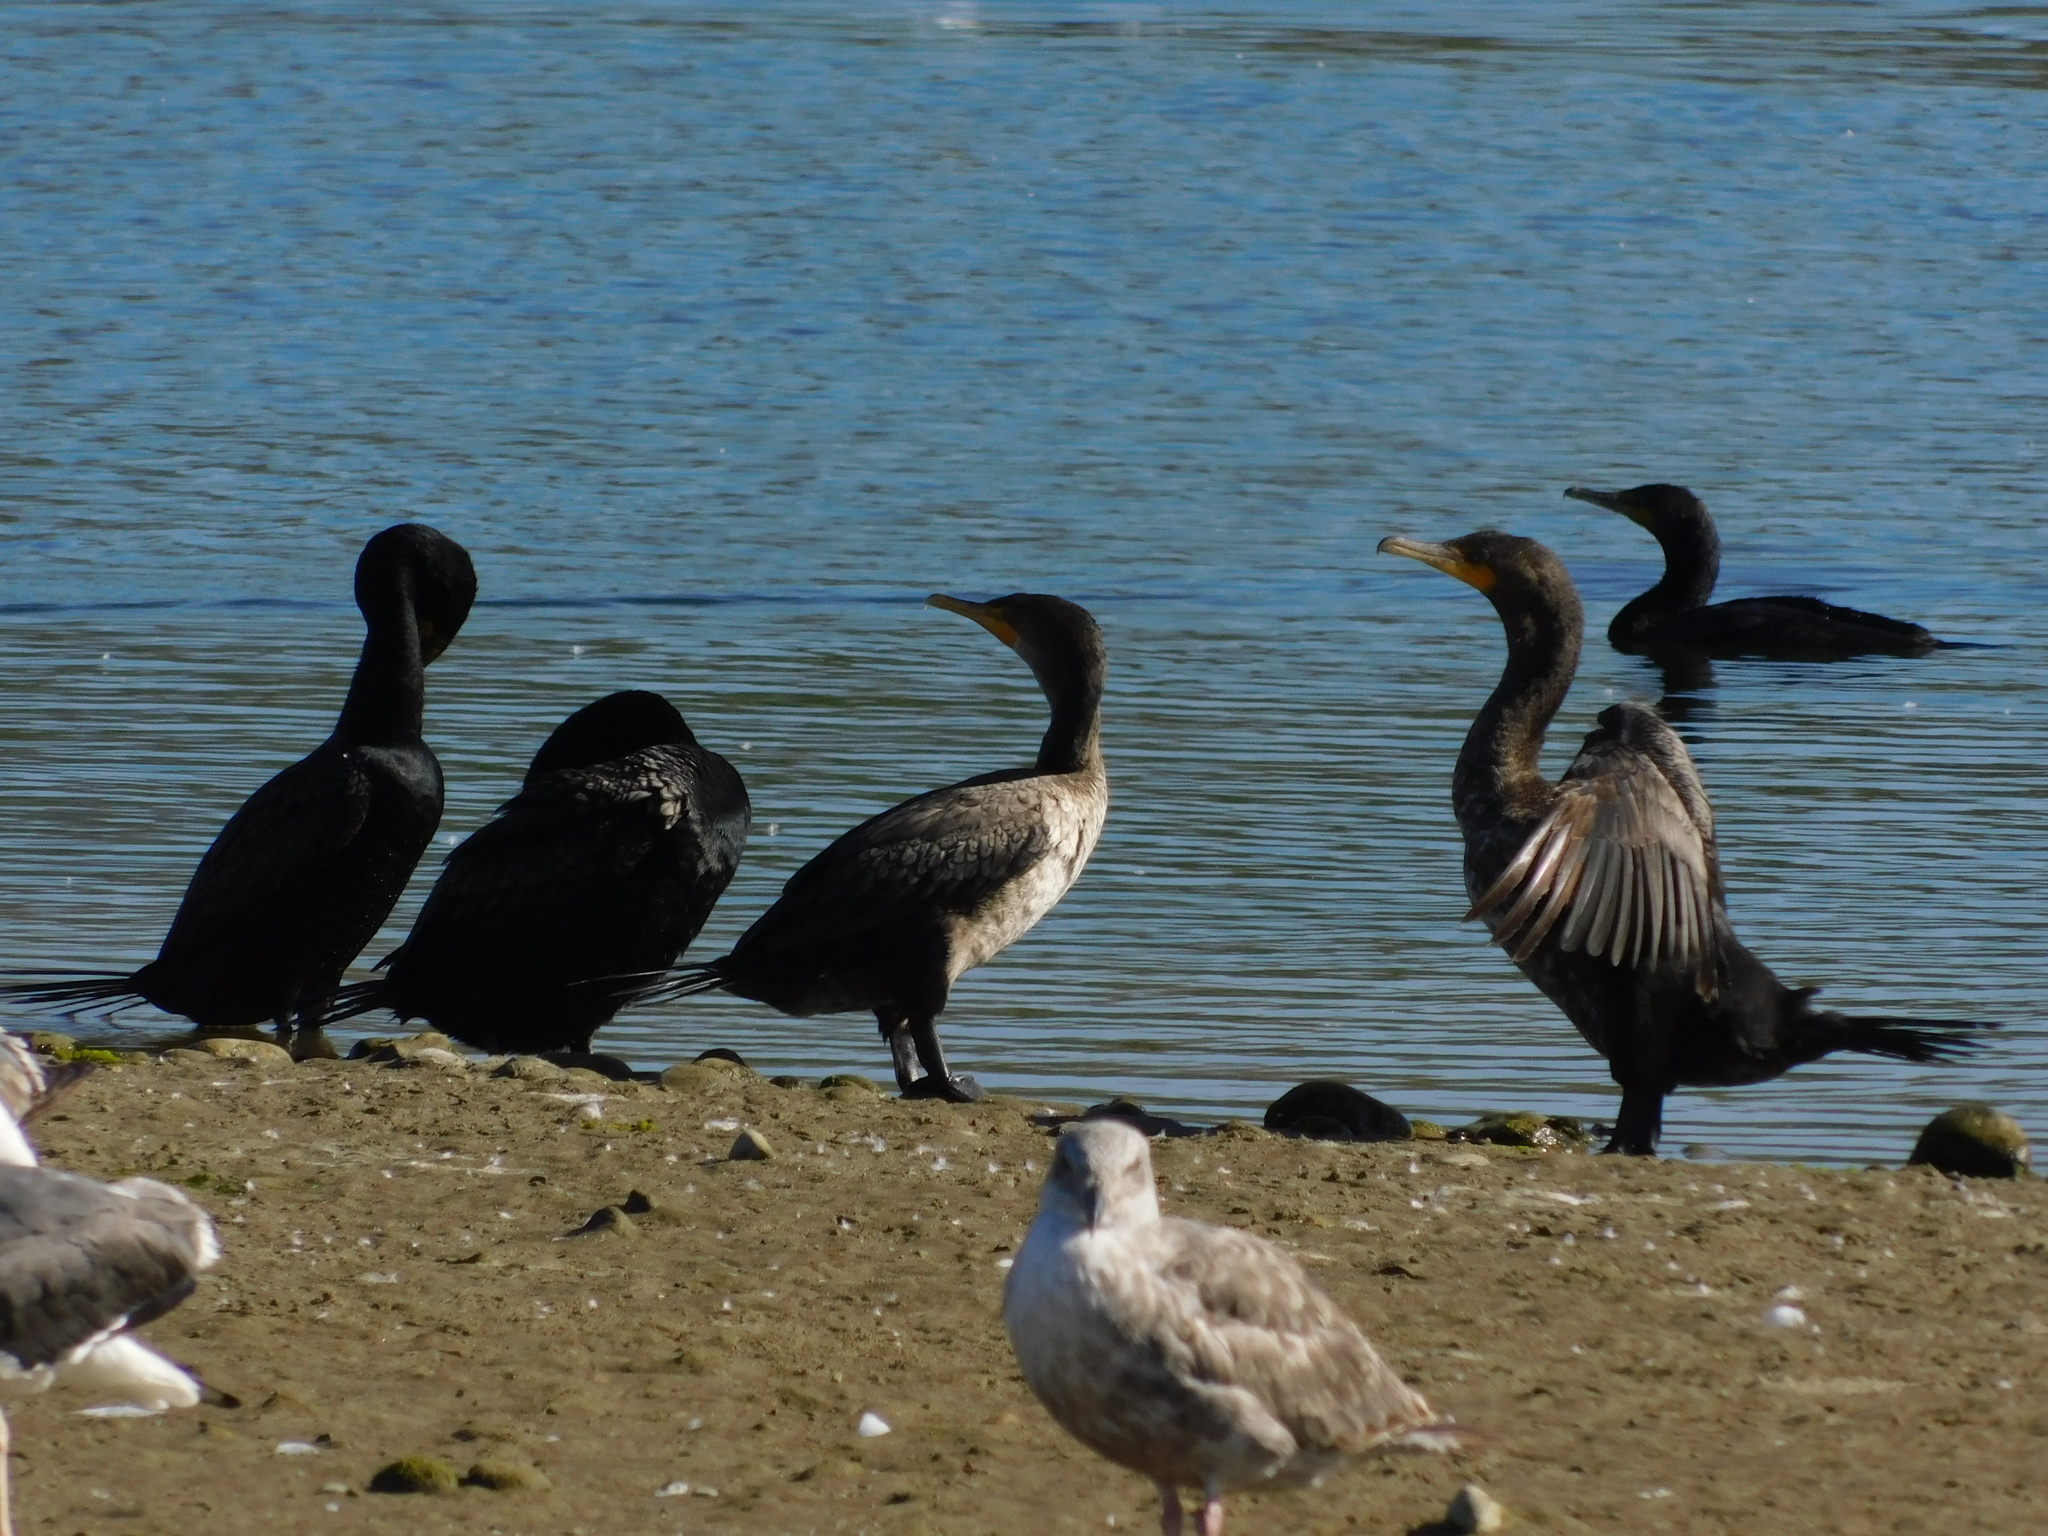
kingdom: Animalia
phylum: Chordata
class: Aves
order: Suliformes
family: Phalacrocoracidae
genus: Phalacrocorax
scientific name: Phalacrocorax auritus
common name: Double-crested cormorant
